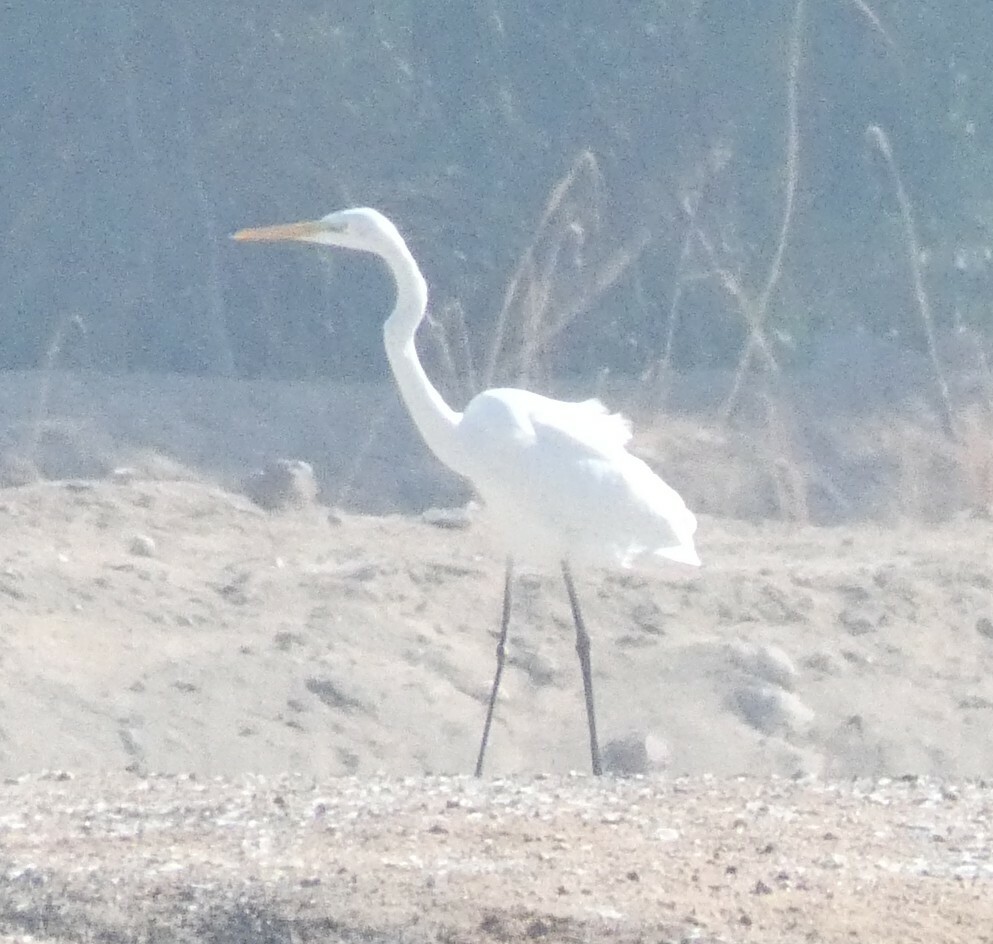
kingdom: Animalia
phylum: Chordata
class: Aves
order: Pelecaniformes
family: Ardeidae
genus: Ardea
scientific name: Ardea alba
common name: Great egret
